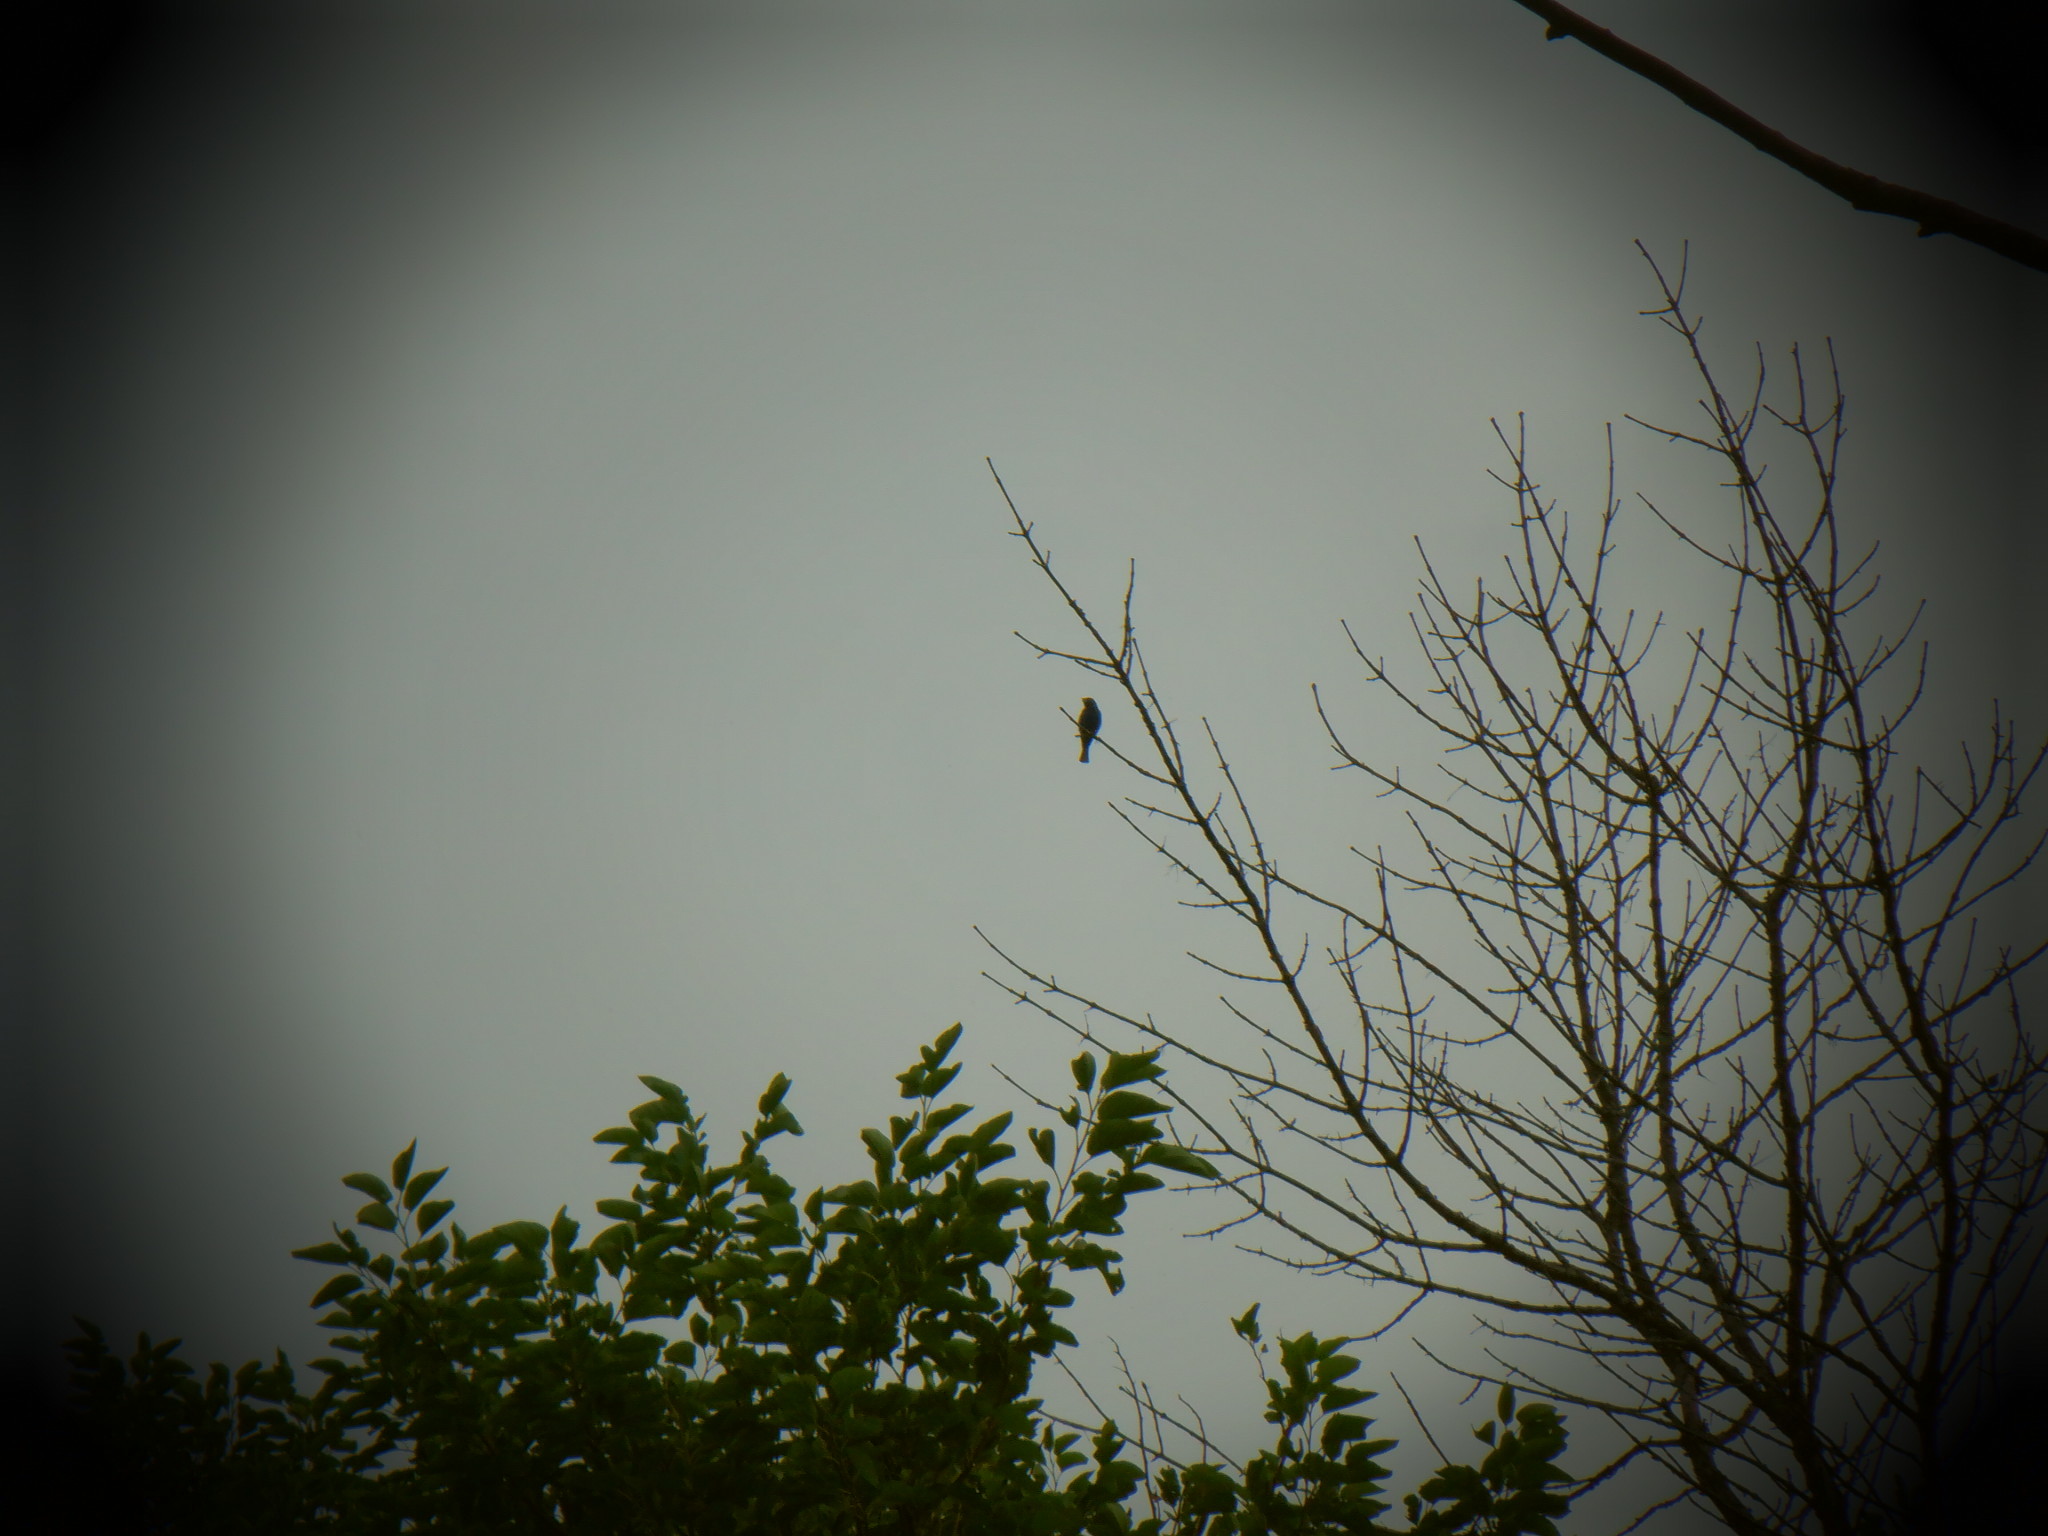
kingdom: Animalia
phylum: Chordata
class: Aves
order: Passeriformes
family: Cardinalidae
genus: Passerina
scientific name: Passerina cyanea
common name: Indigo bunting
